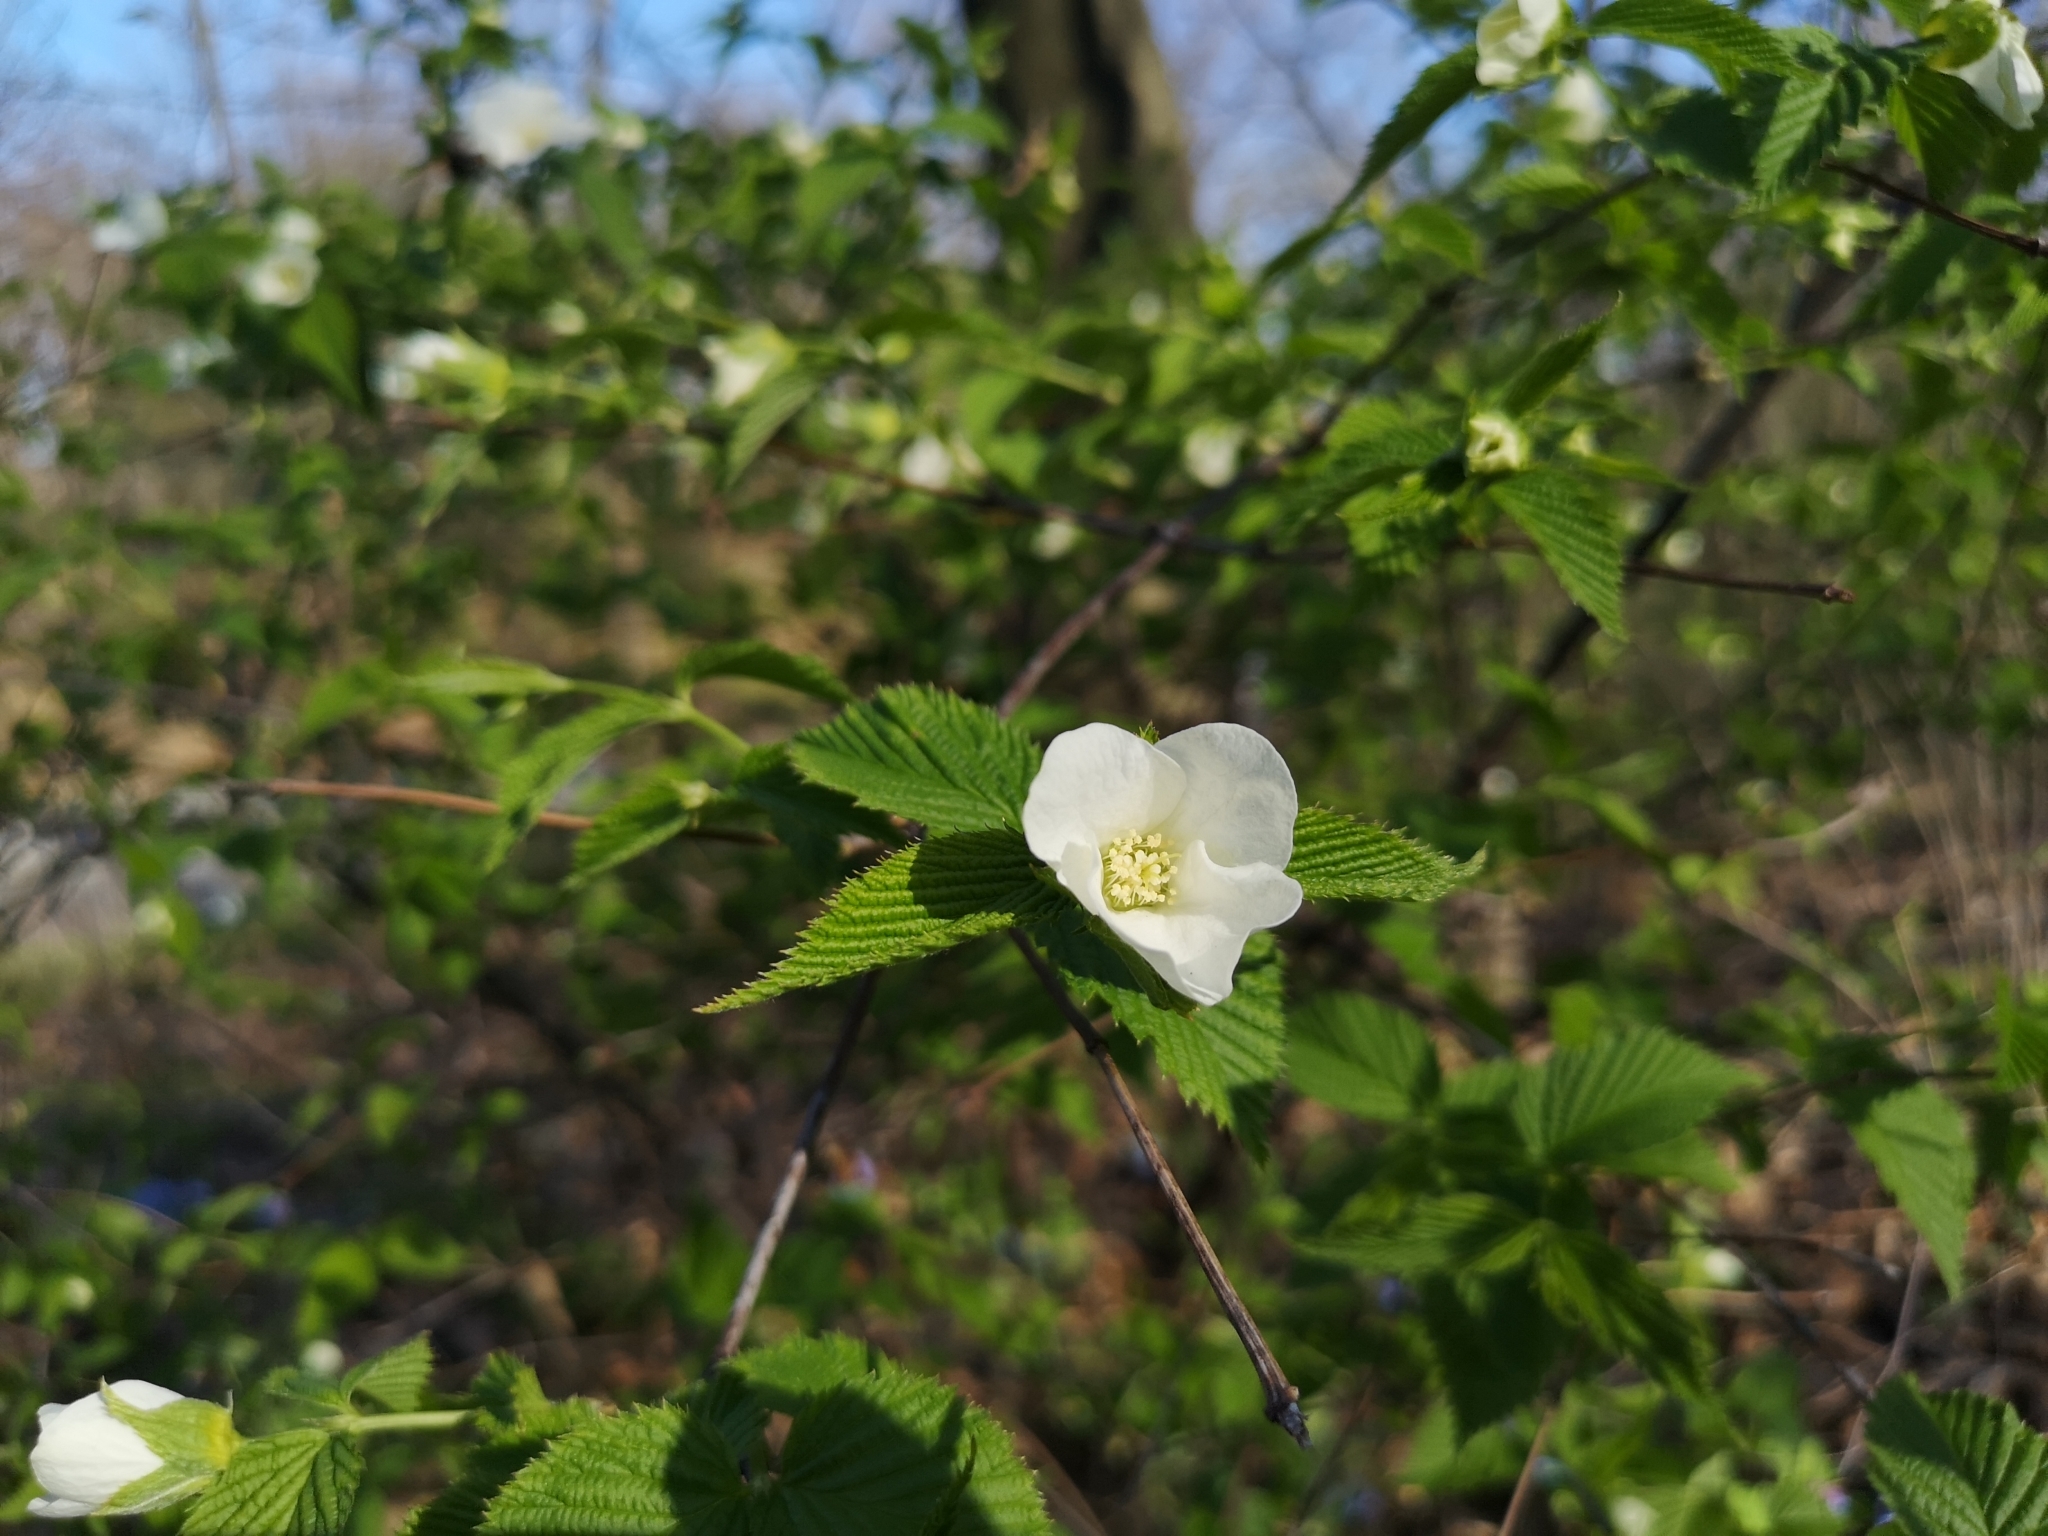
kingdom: Plantae
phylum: Tracheophyta
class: Magnoliopsida
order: Rosales
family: Rosaceae
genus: Rhodotypos
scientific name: Rhodotypos scandens
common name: Jetbead
